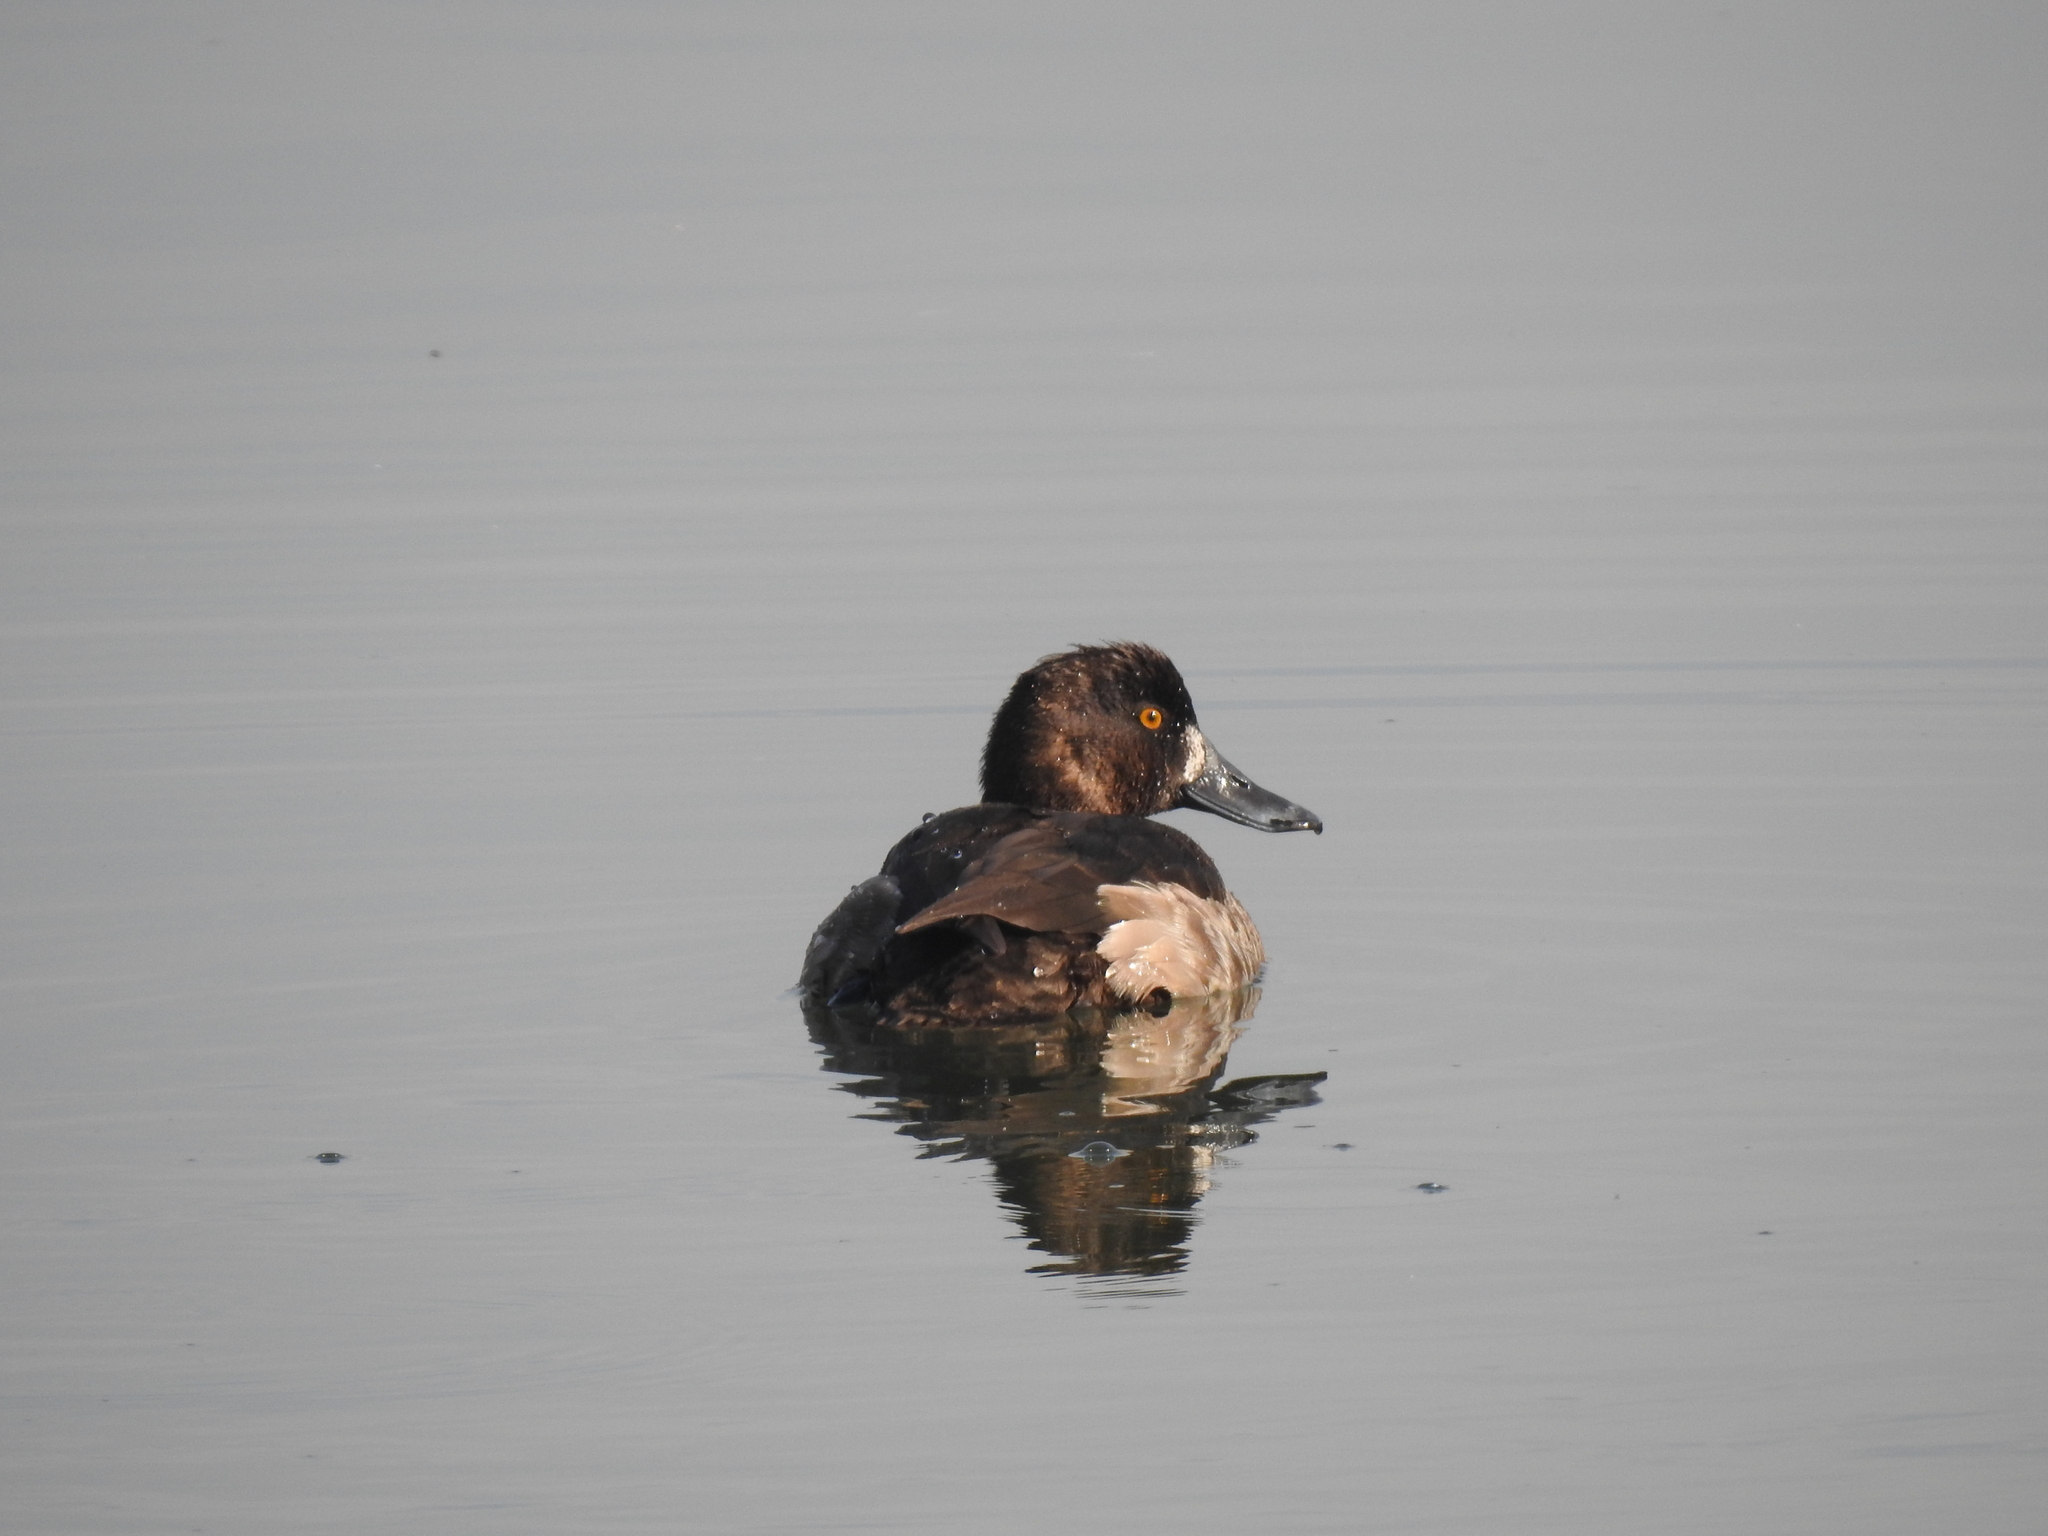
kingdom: Animalia
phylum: Chordata
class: Aves
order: Anseriformes
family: Anatidae
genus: Aythya
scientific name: Aythya fuligula
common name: Tufted duck
